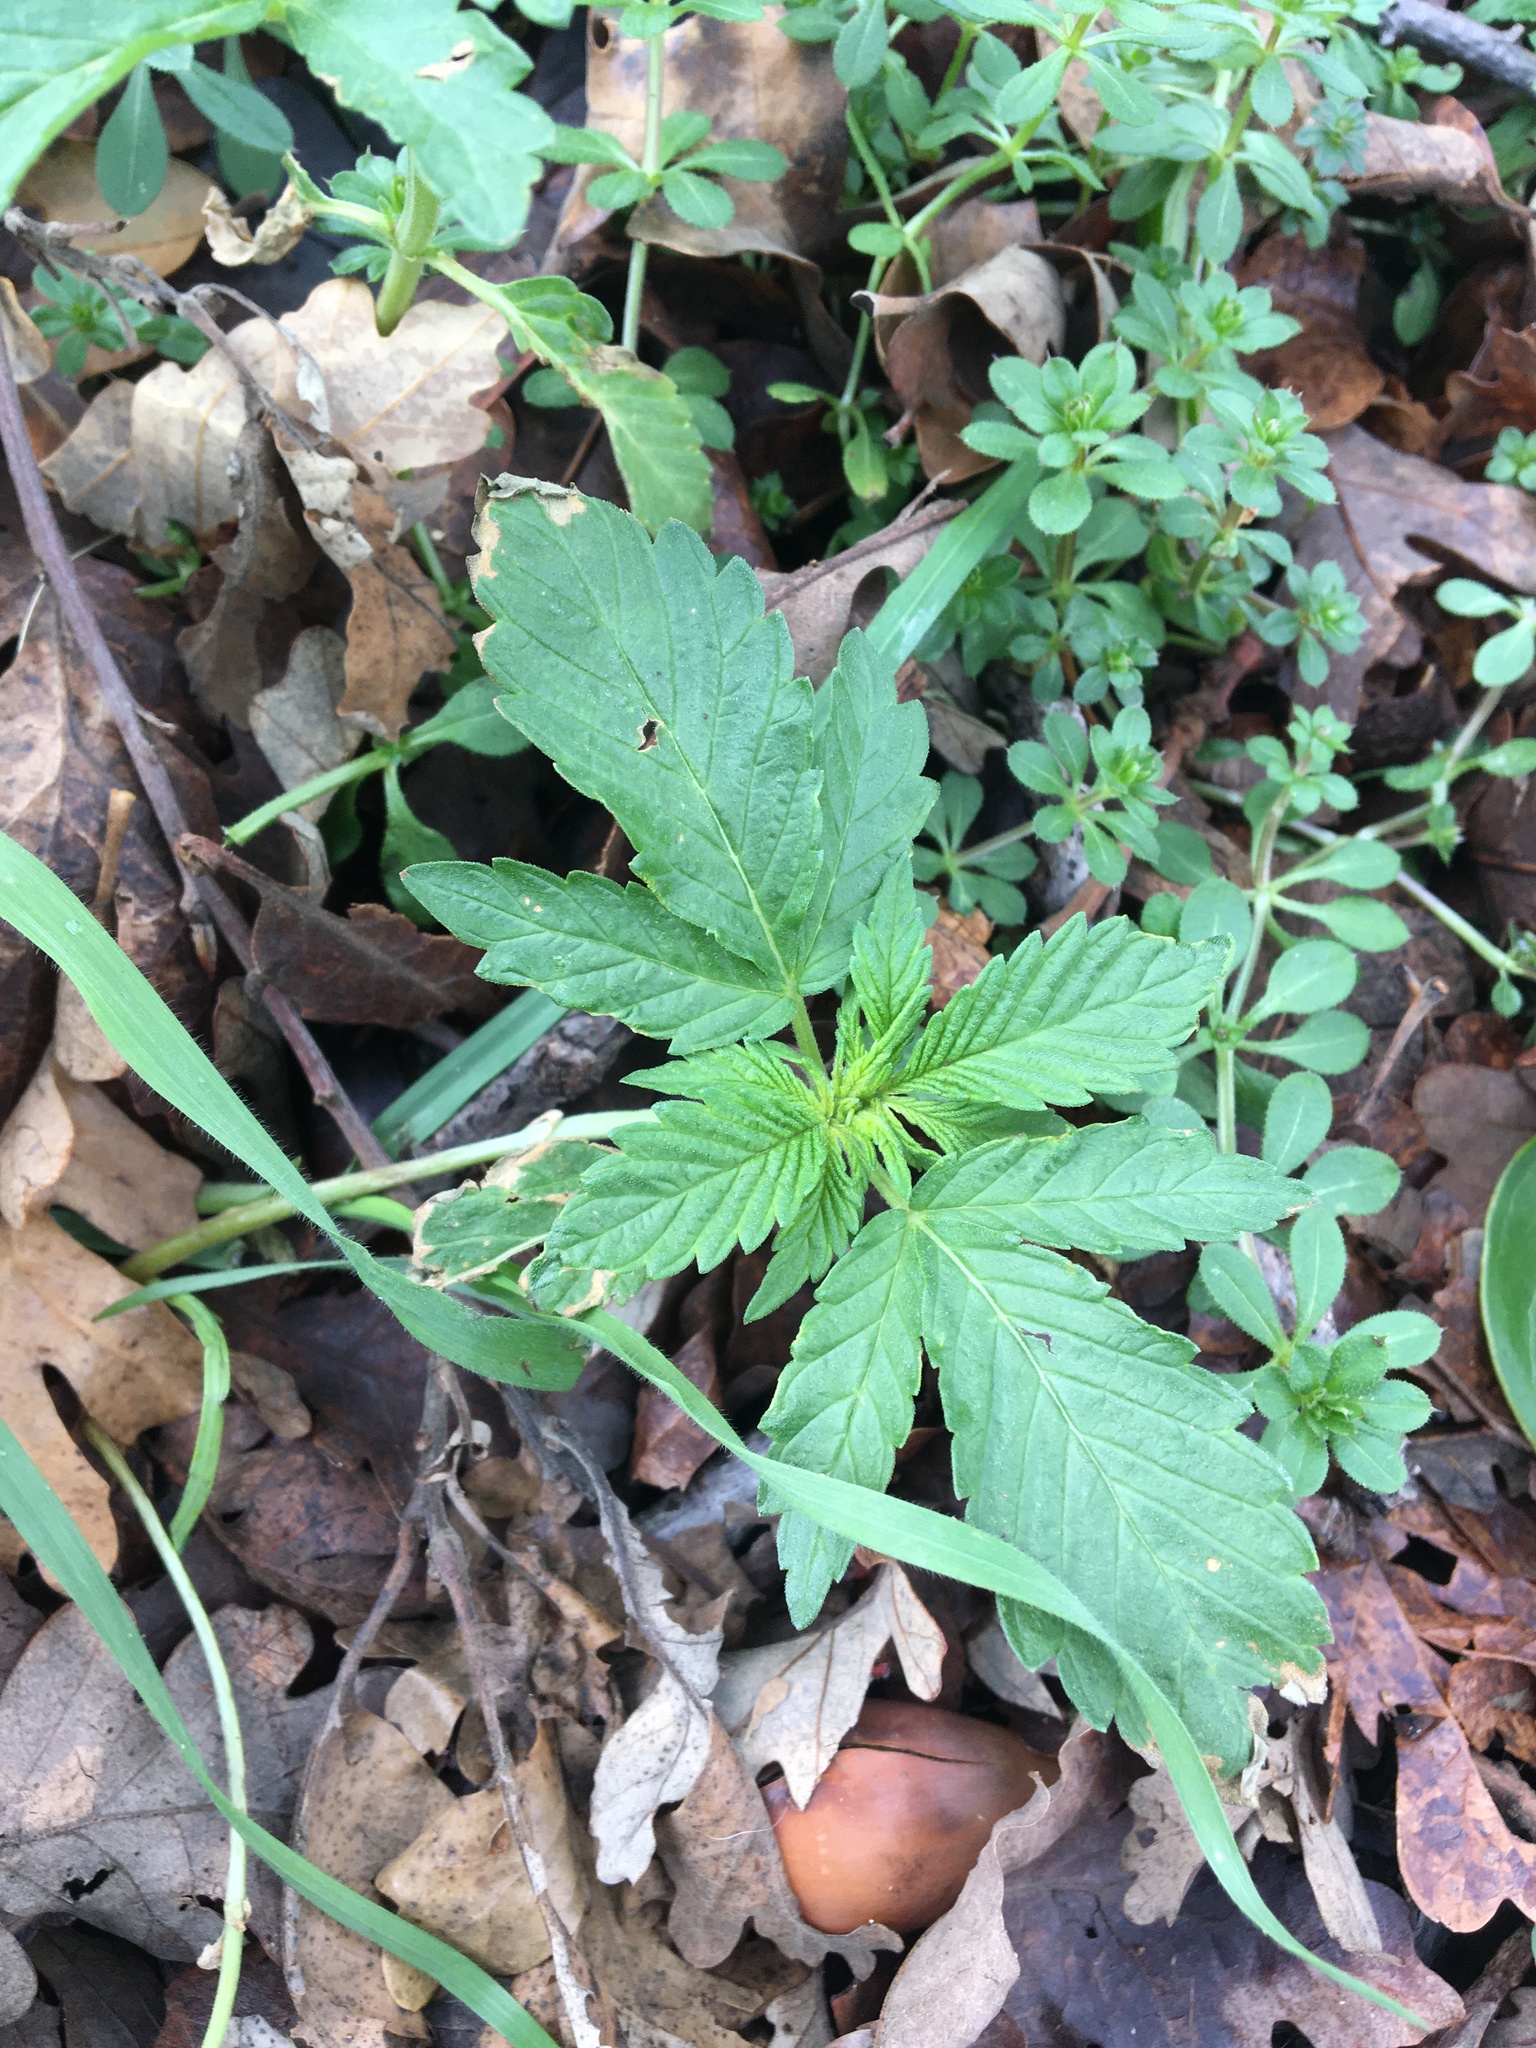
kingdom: Plantae
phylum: Tracheophyta
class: Magnoliopsida
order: Rosales
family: Cannabaceae
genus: Cannabis
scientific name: Cannabis sativa
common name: Hemp
